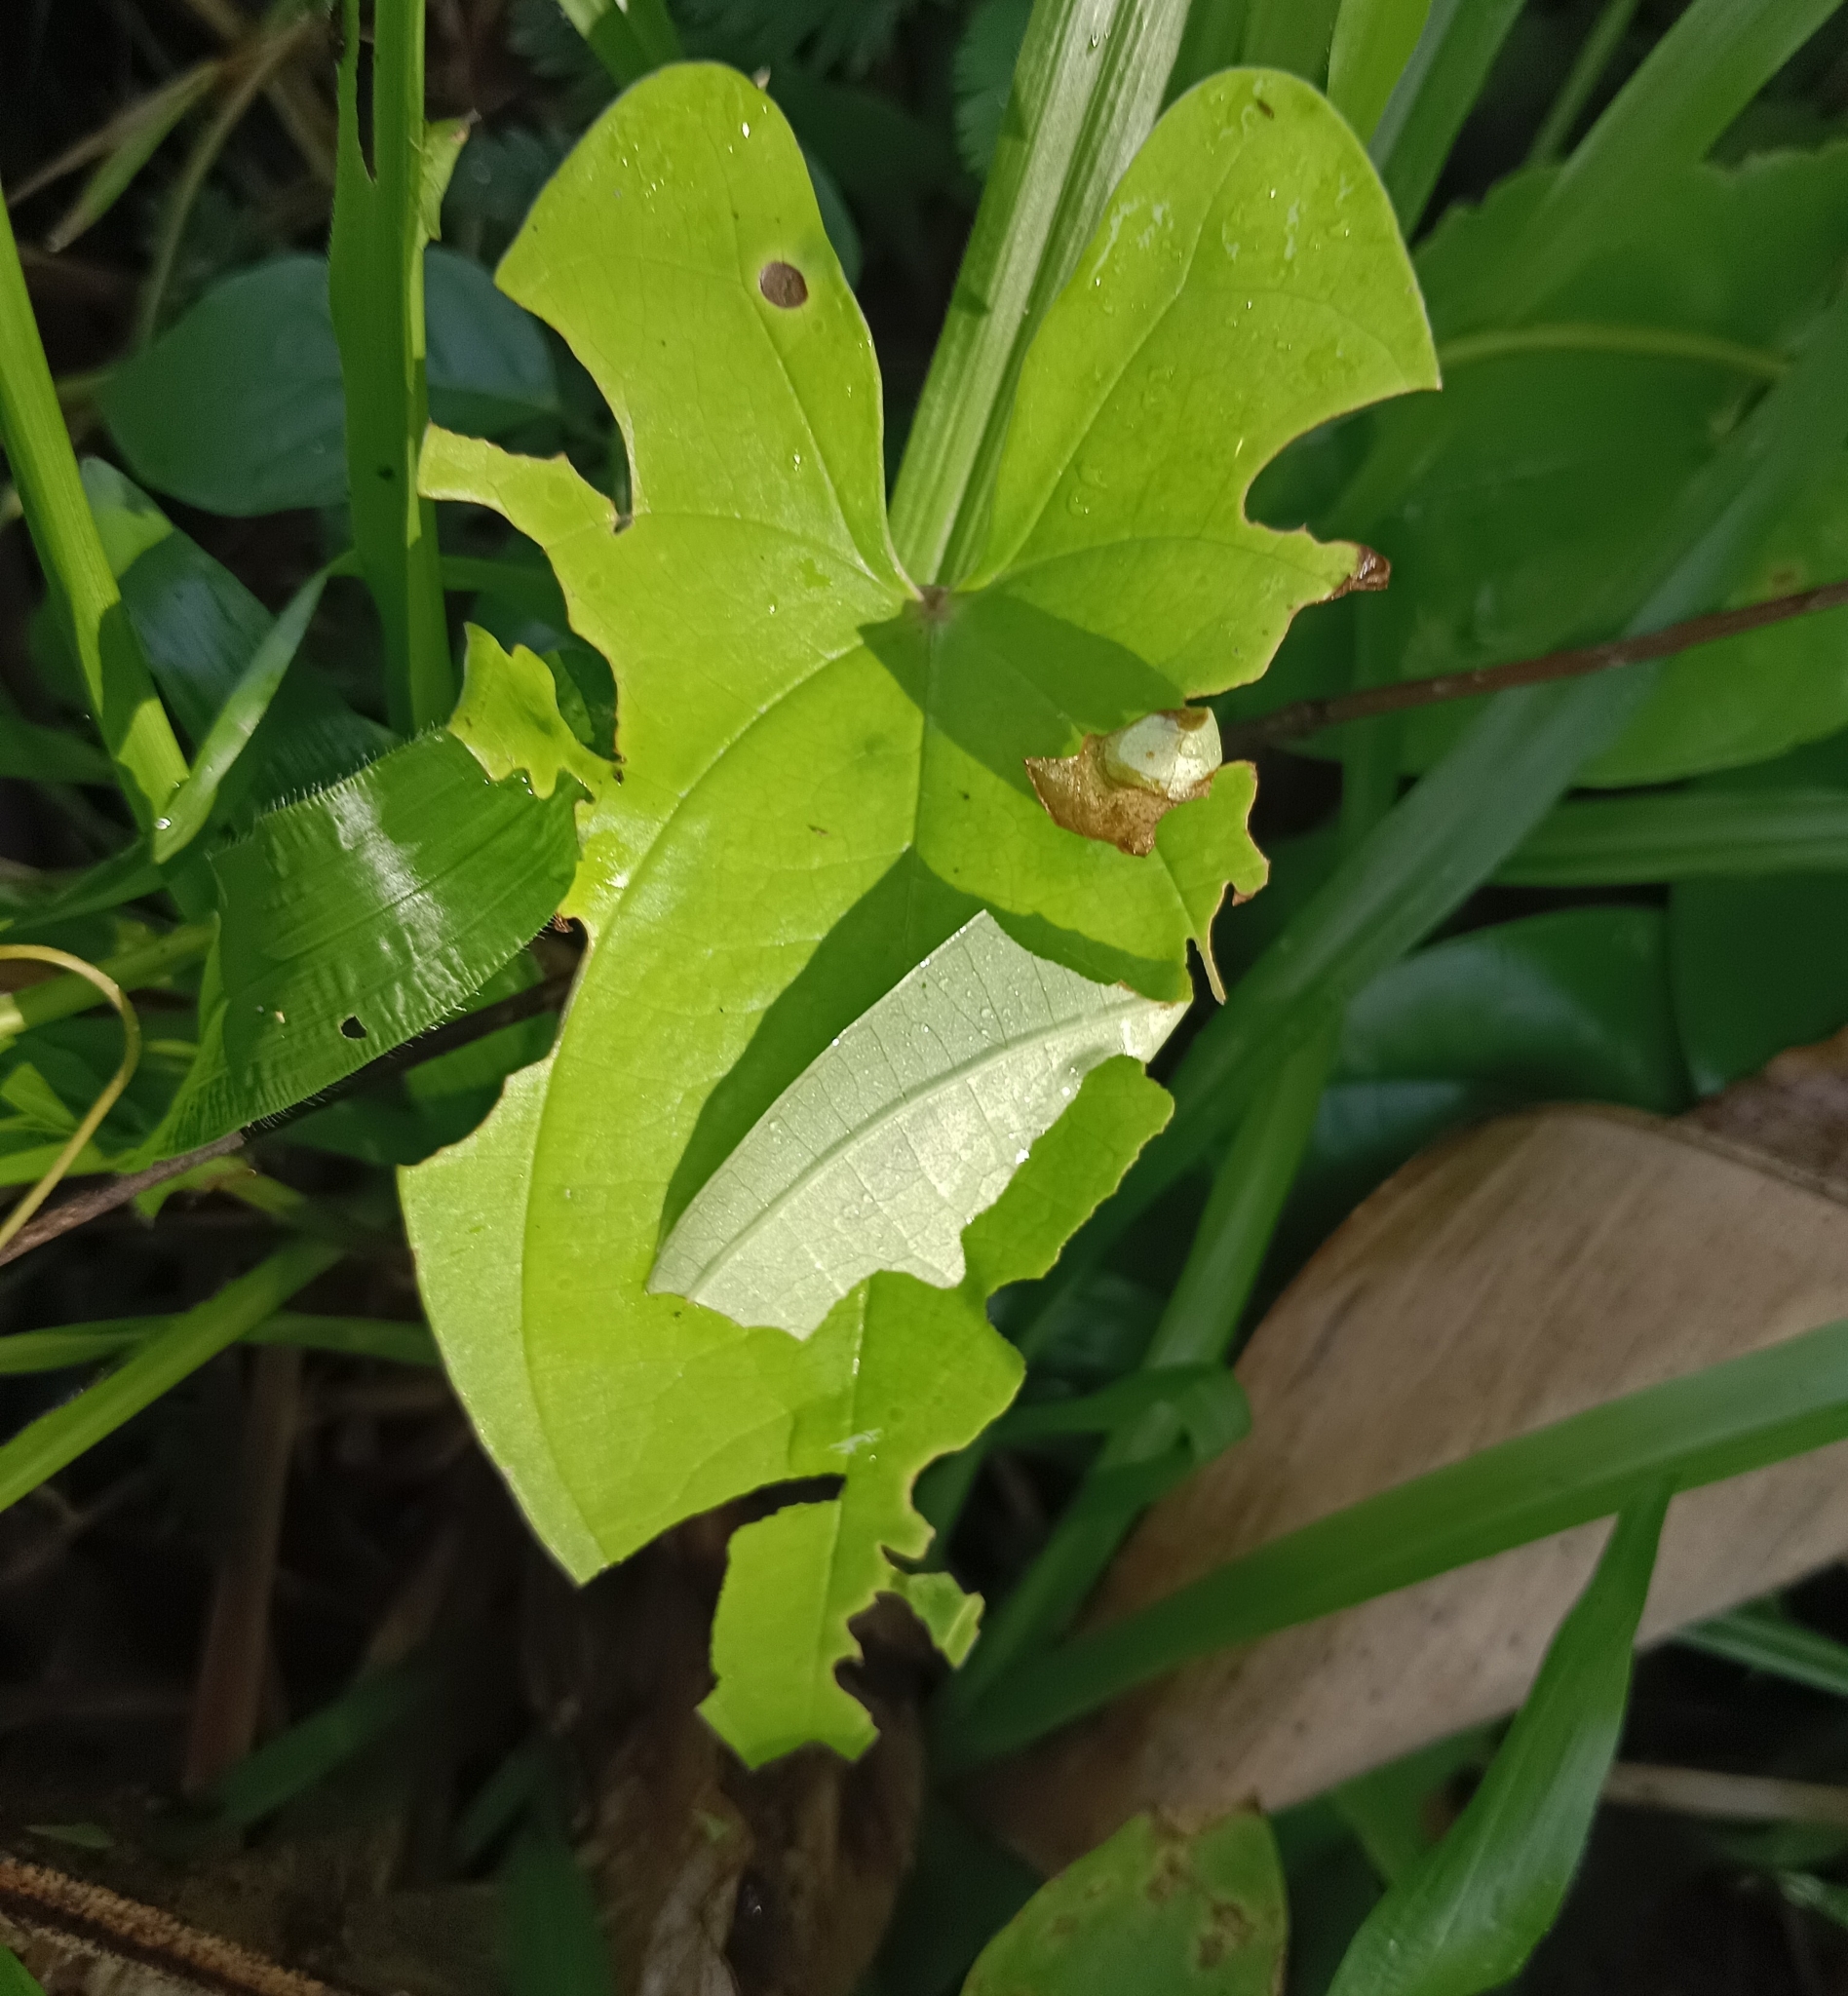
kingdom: Animalia
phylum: Arthropoda
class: Insecta
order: Lepidoptera
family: Hesperiidae
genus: Tagiades
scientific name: Tagiades litigiosa
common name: Water snow flat
